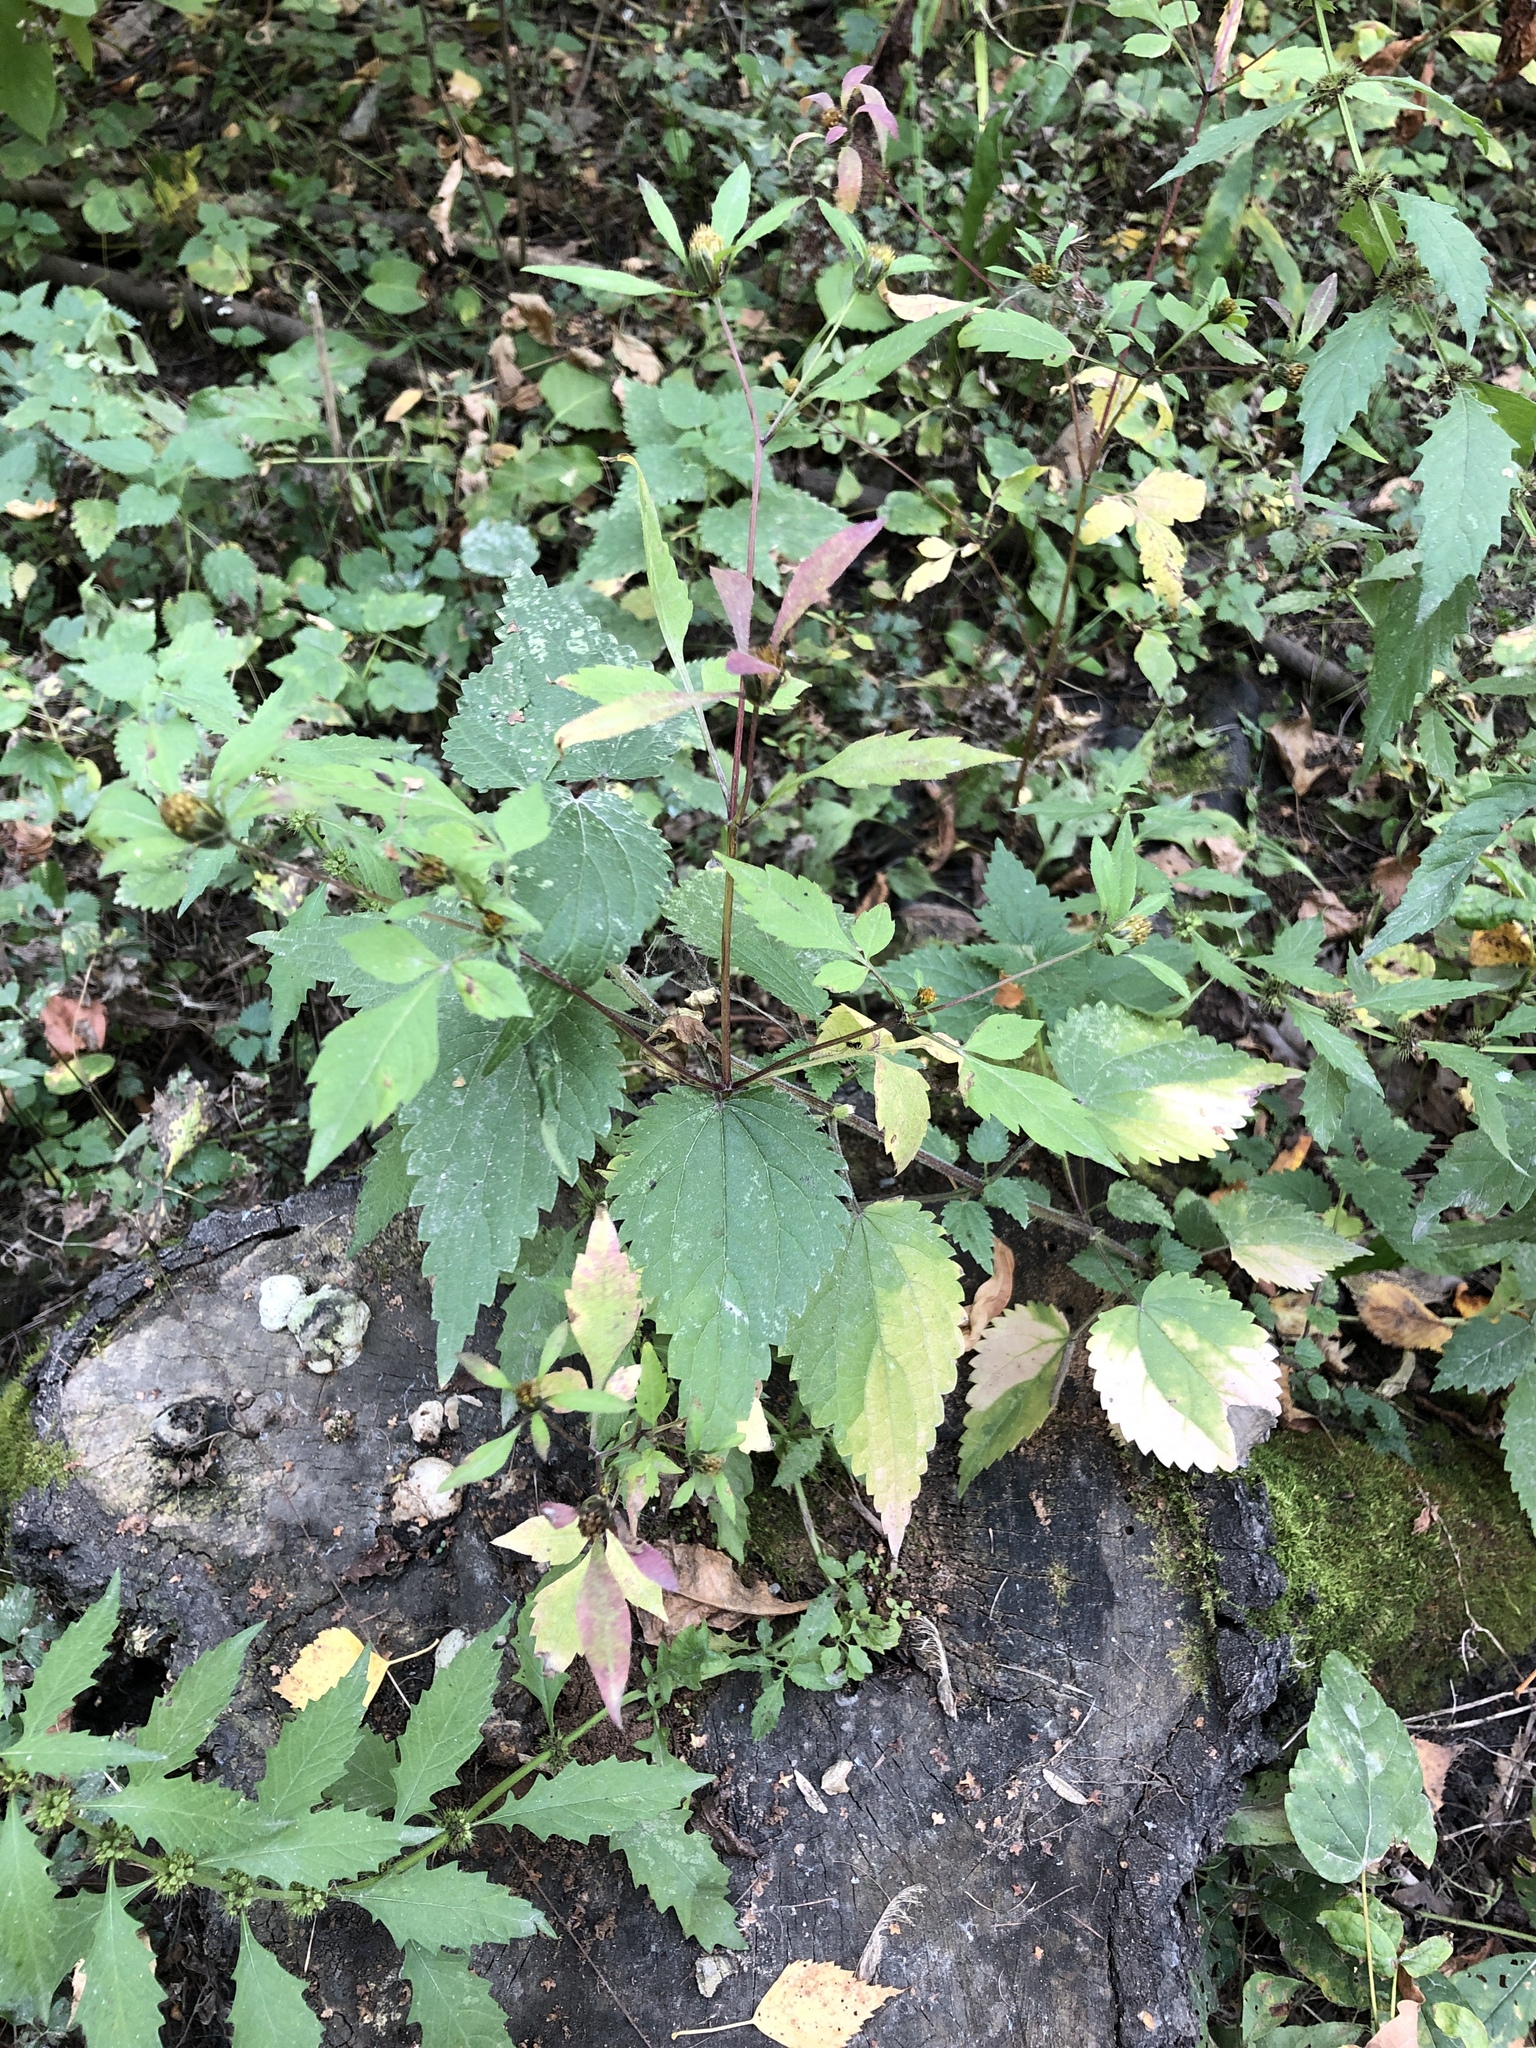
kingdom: Plantae
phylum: Tracheophyta
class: Magnoliopsida
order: Asterales
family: Asteraceae
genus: Bidens
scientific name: Bidens frondosa
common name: Beggarticks
